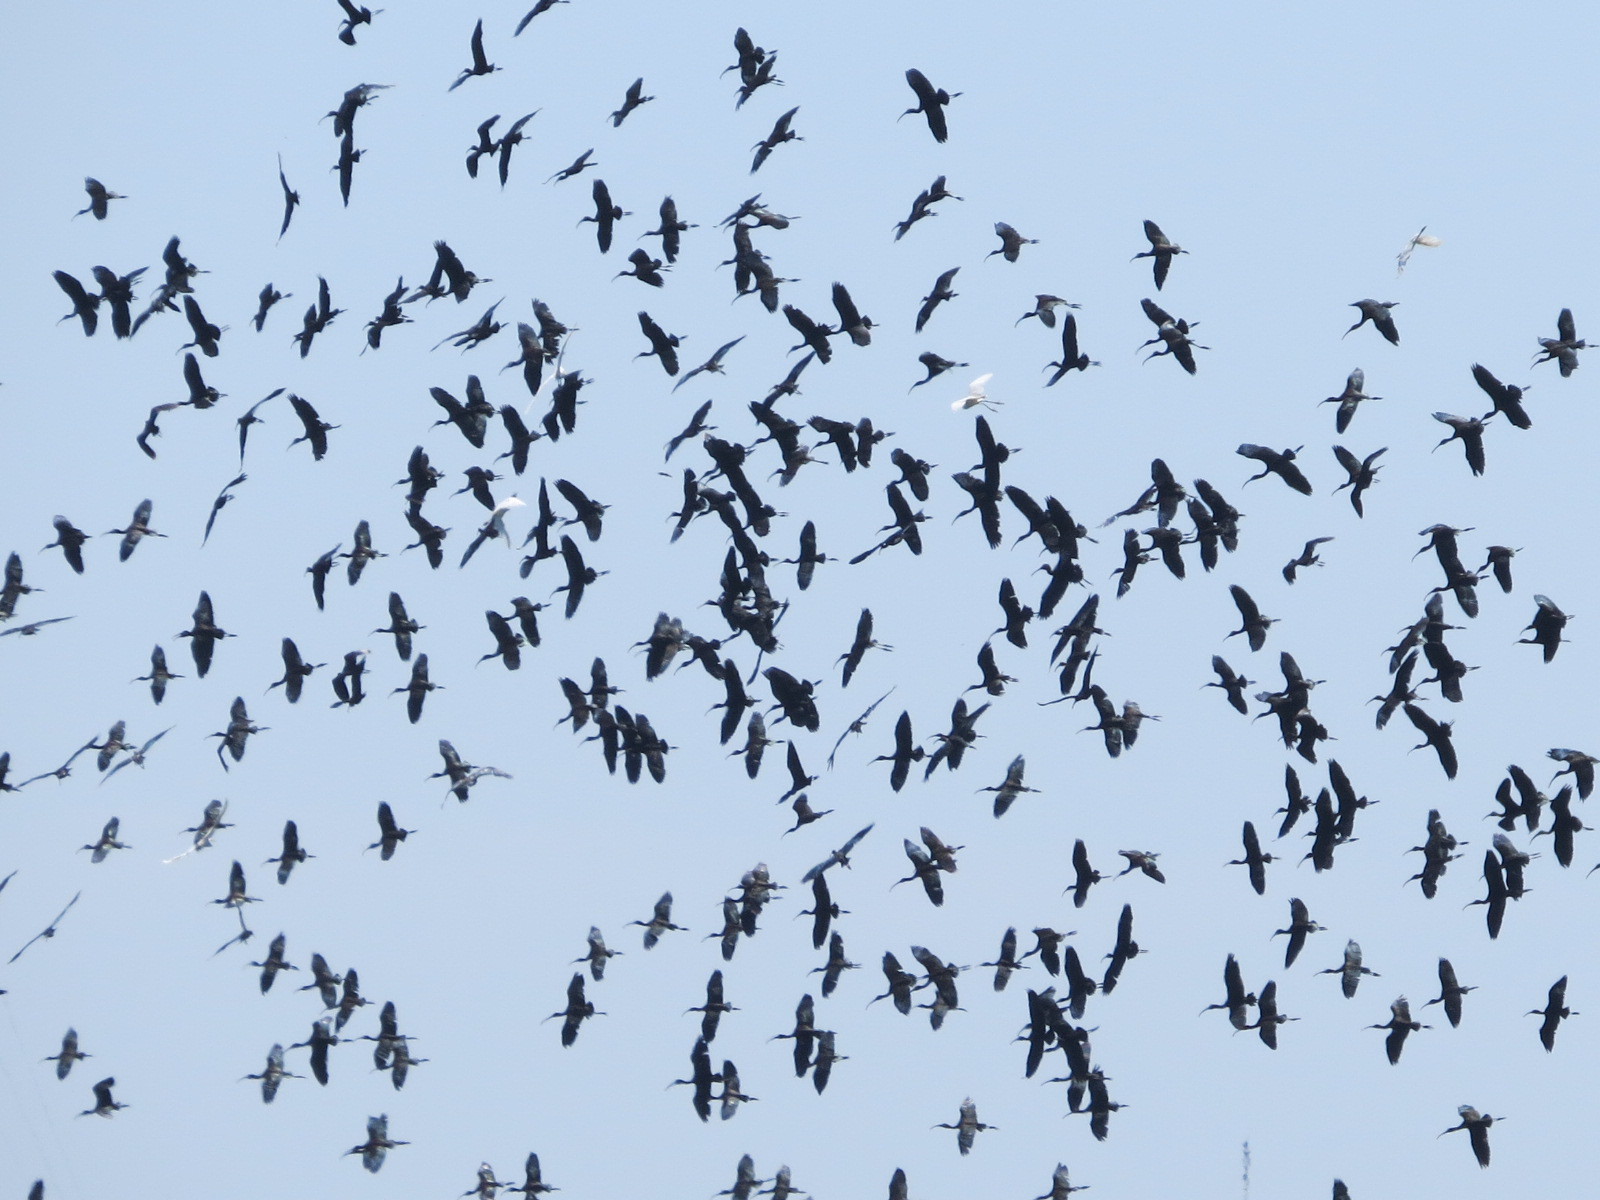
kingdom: Animalia
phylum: Chordata
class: Aves
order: Pelecaniformes
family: Threskiornithidae
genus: Plegadis
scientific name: Plegadis chihi
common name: White-faced ibis
